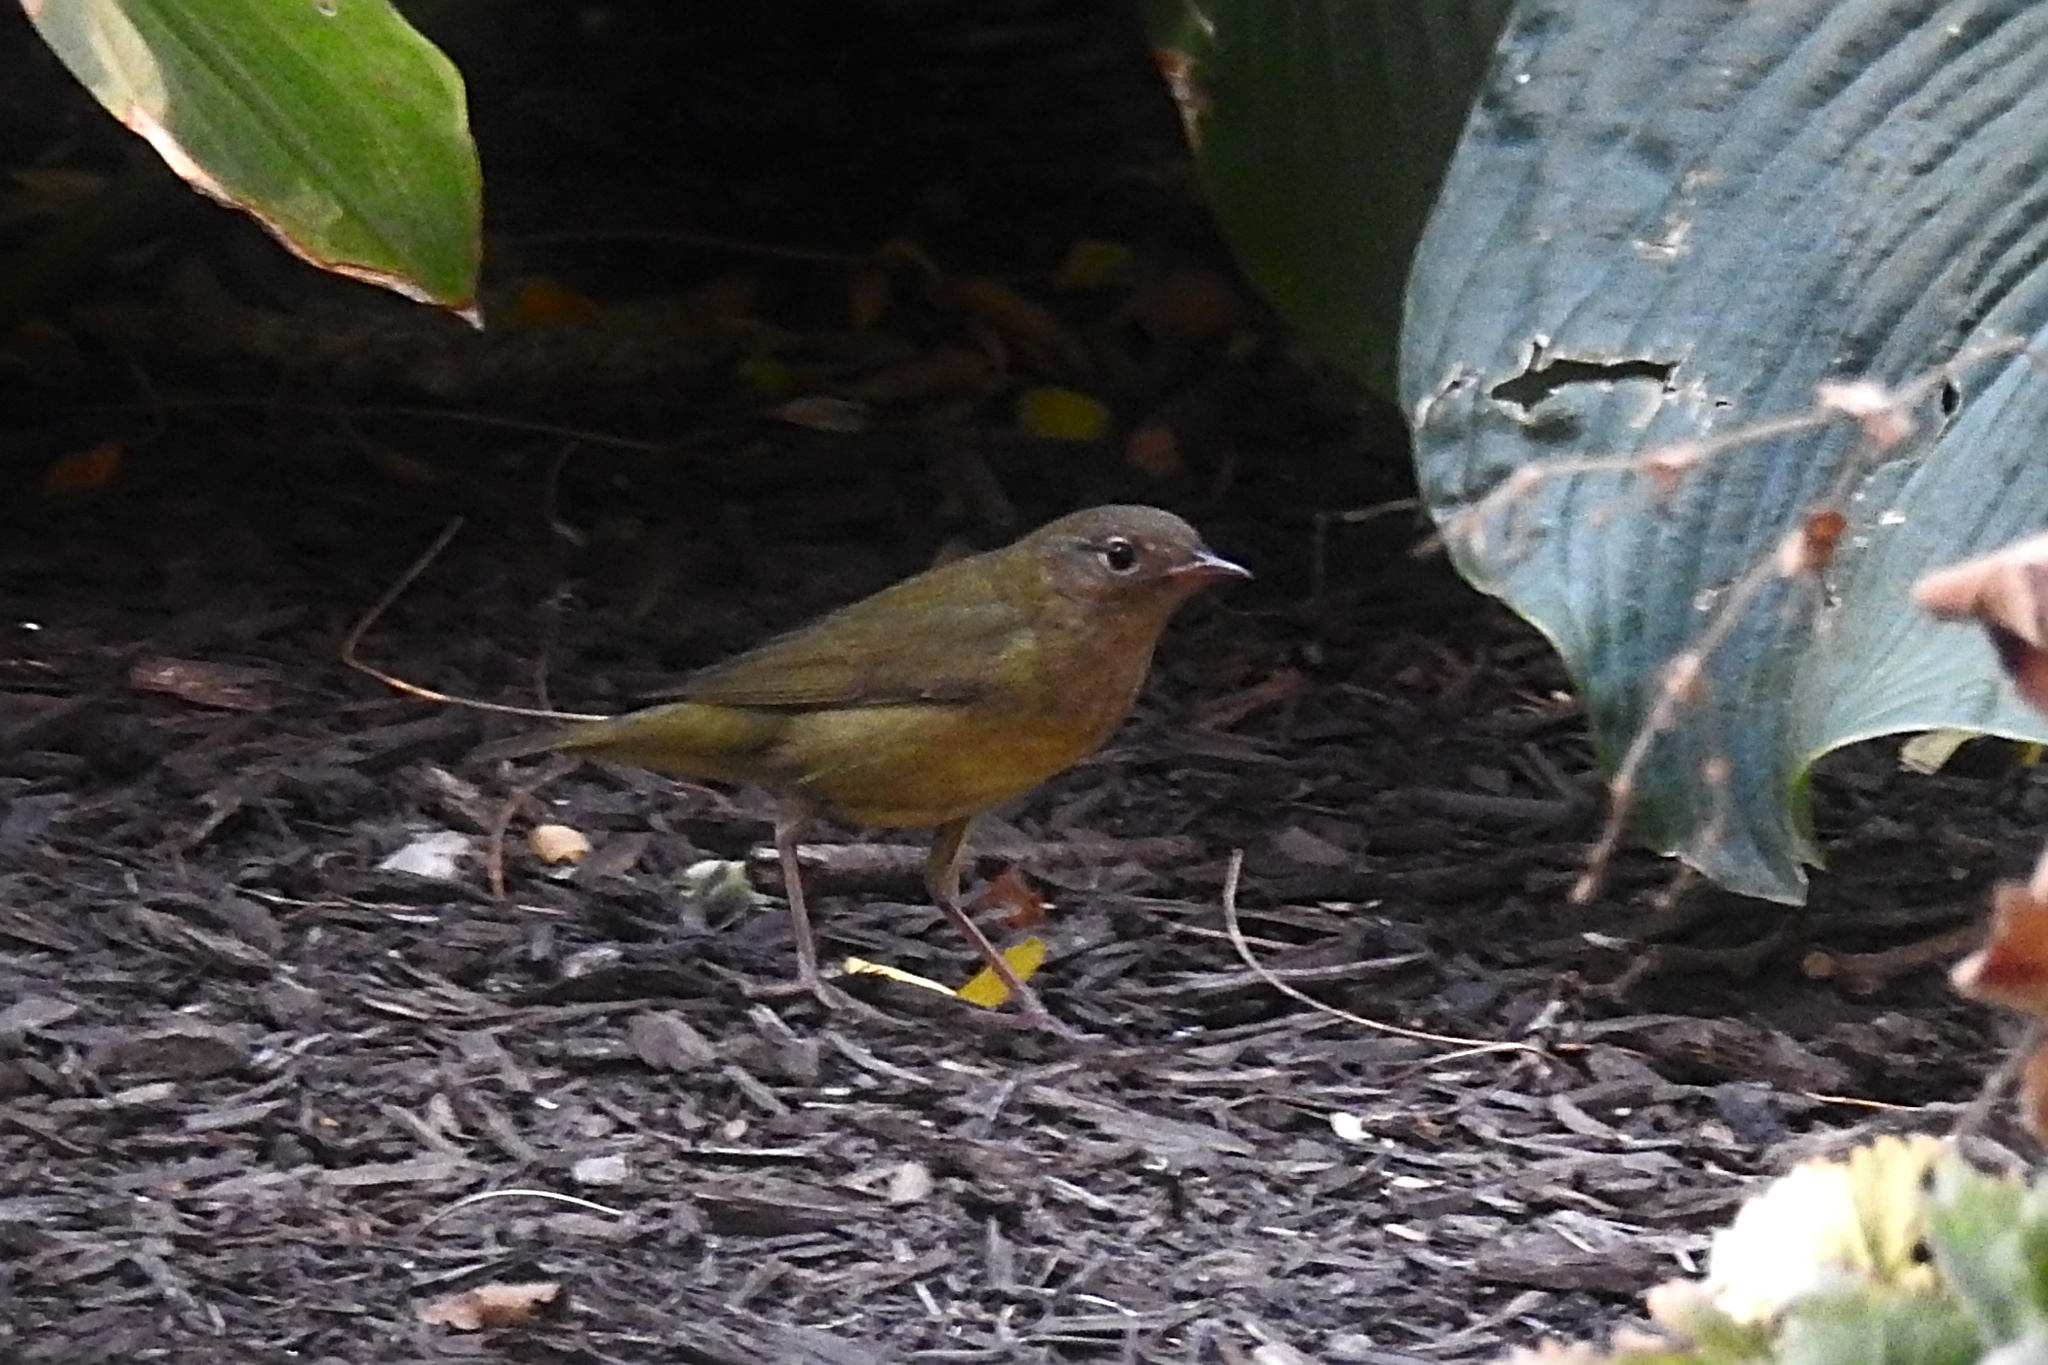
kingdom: Animalia
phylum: Chordata
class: Aves
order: Passeriformes
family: Parulidae
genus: Oporornis
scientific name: Oporornis agilis
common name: Connecticut warbler
